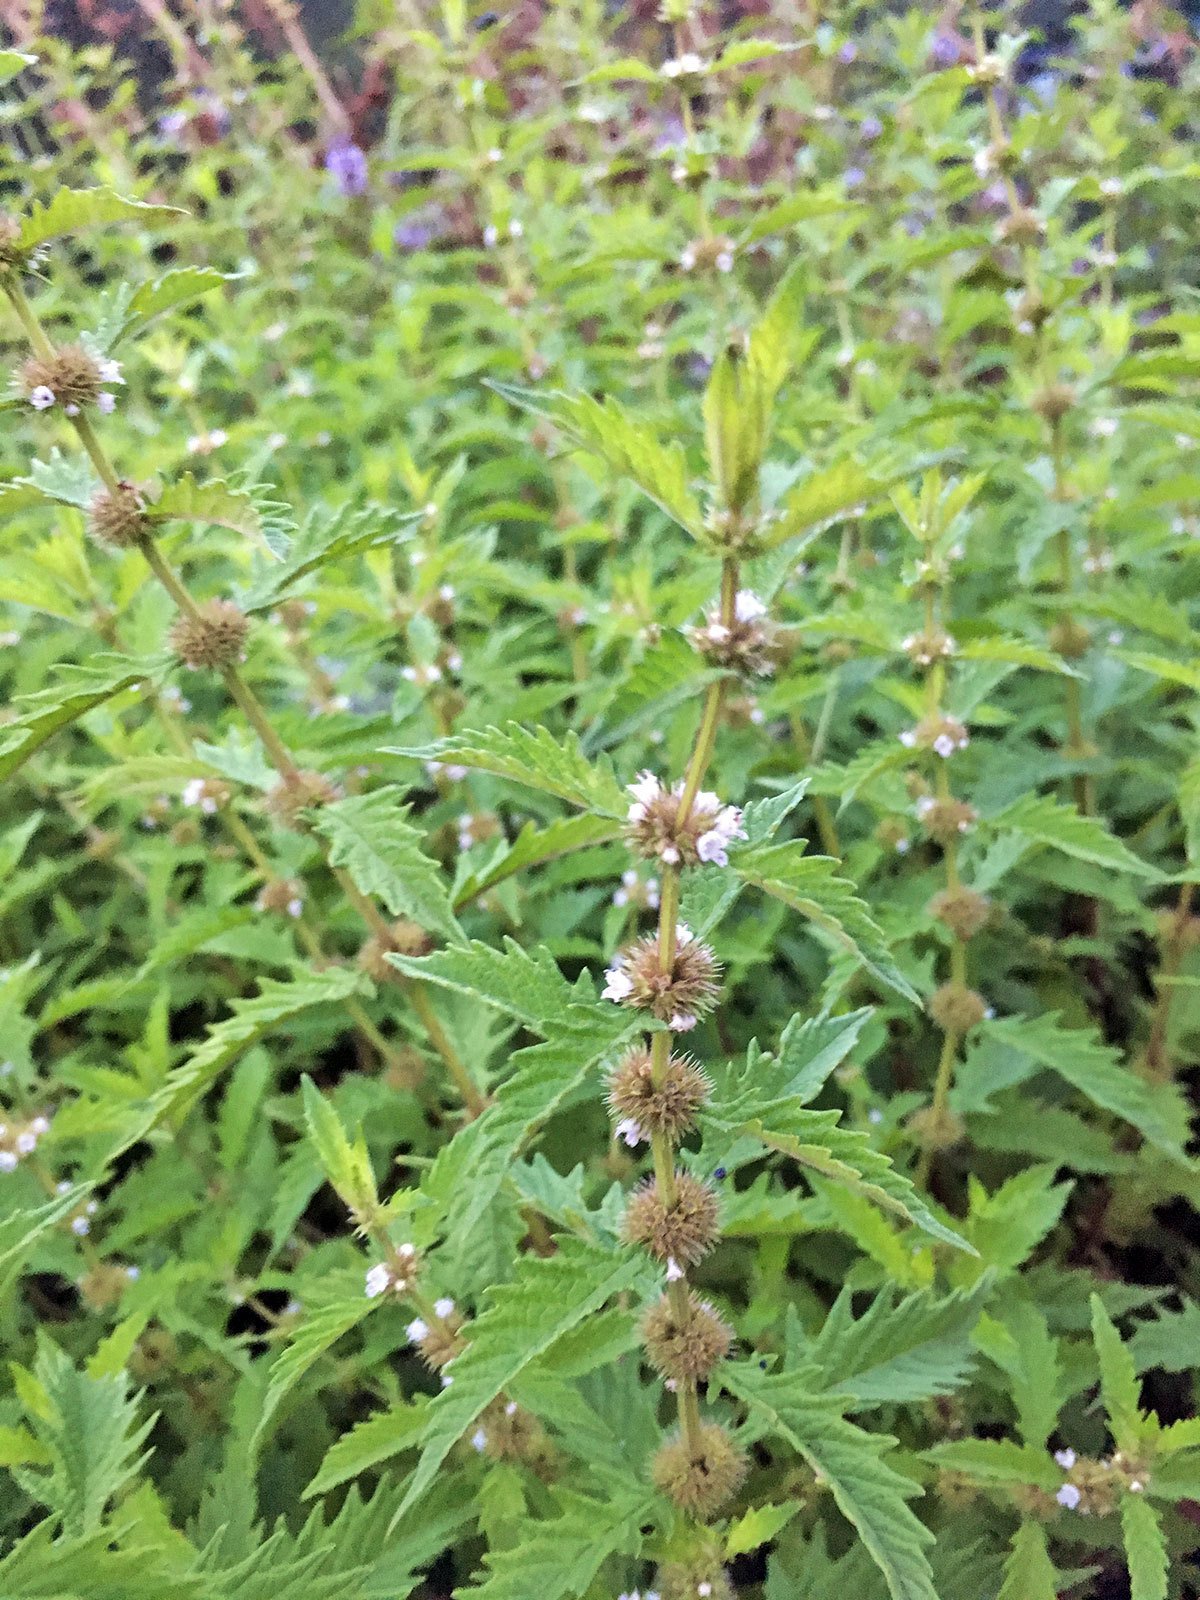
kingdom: Plantae
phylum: Tracheophyta
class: Magnoliopsida
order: Lamiales
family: Lamiaceae
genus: Lycopus
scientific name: Lycopus europaeus
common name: European bugleweed
